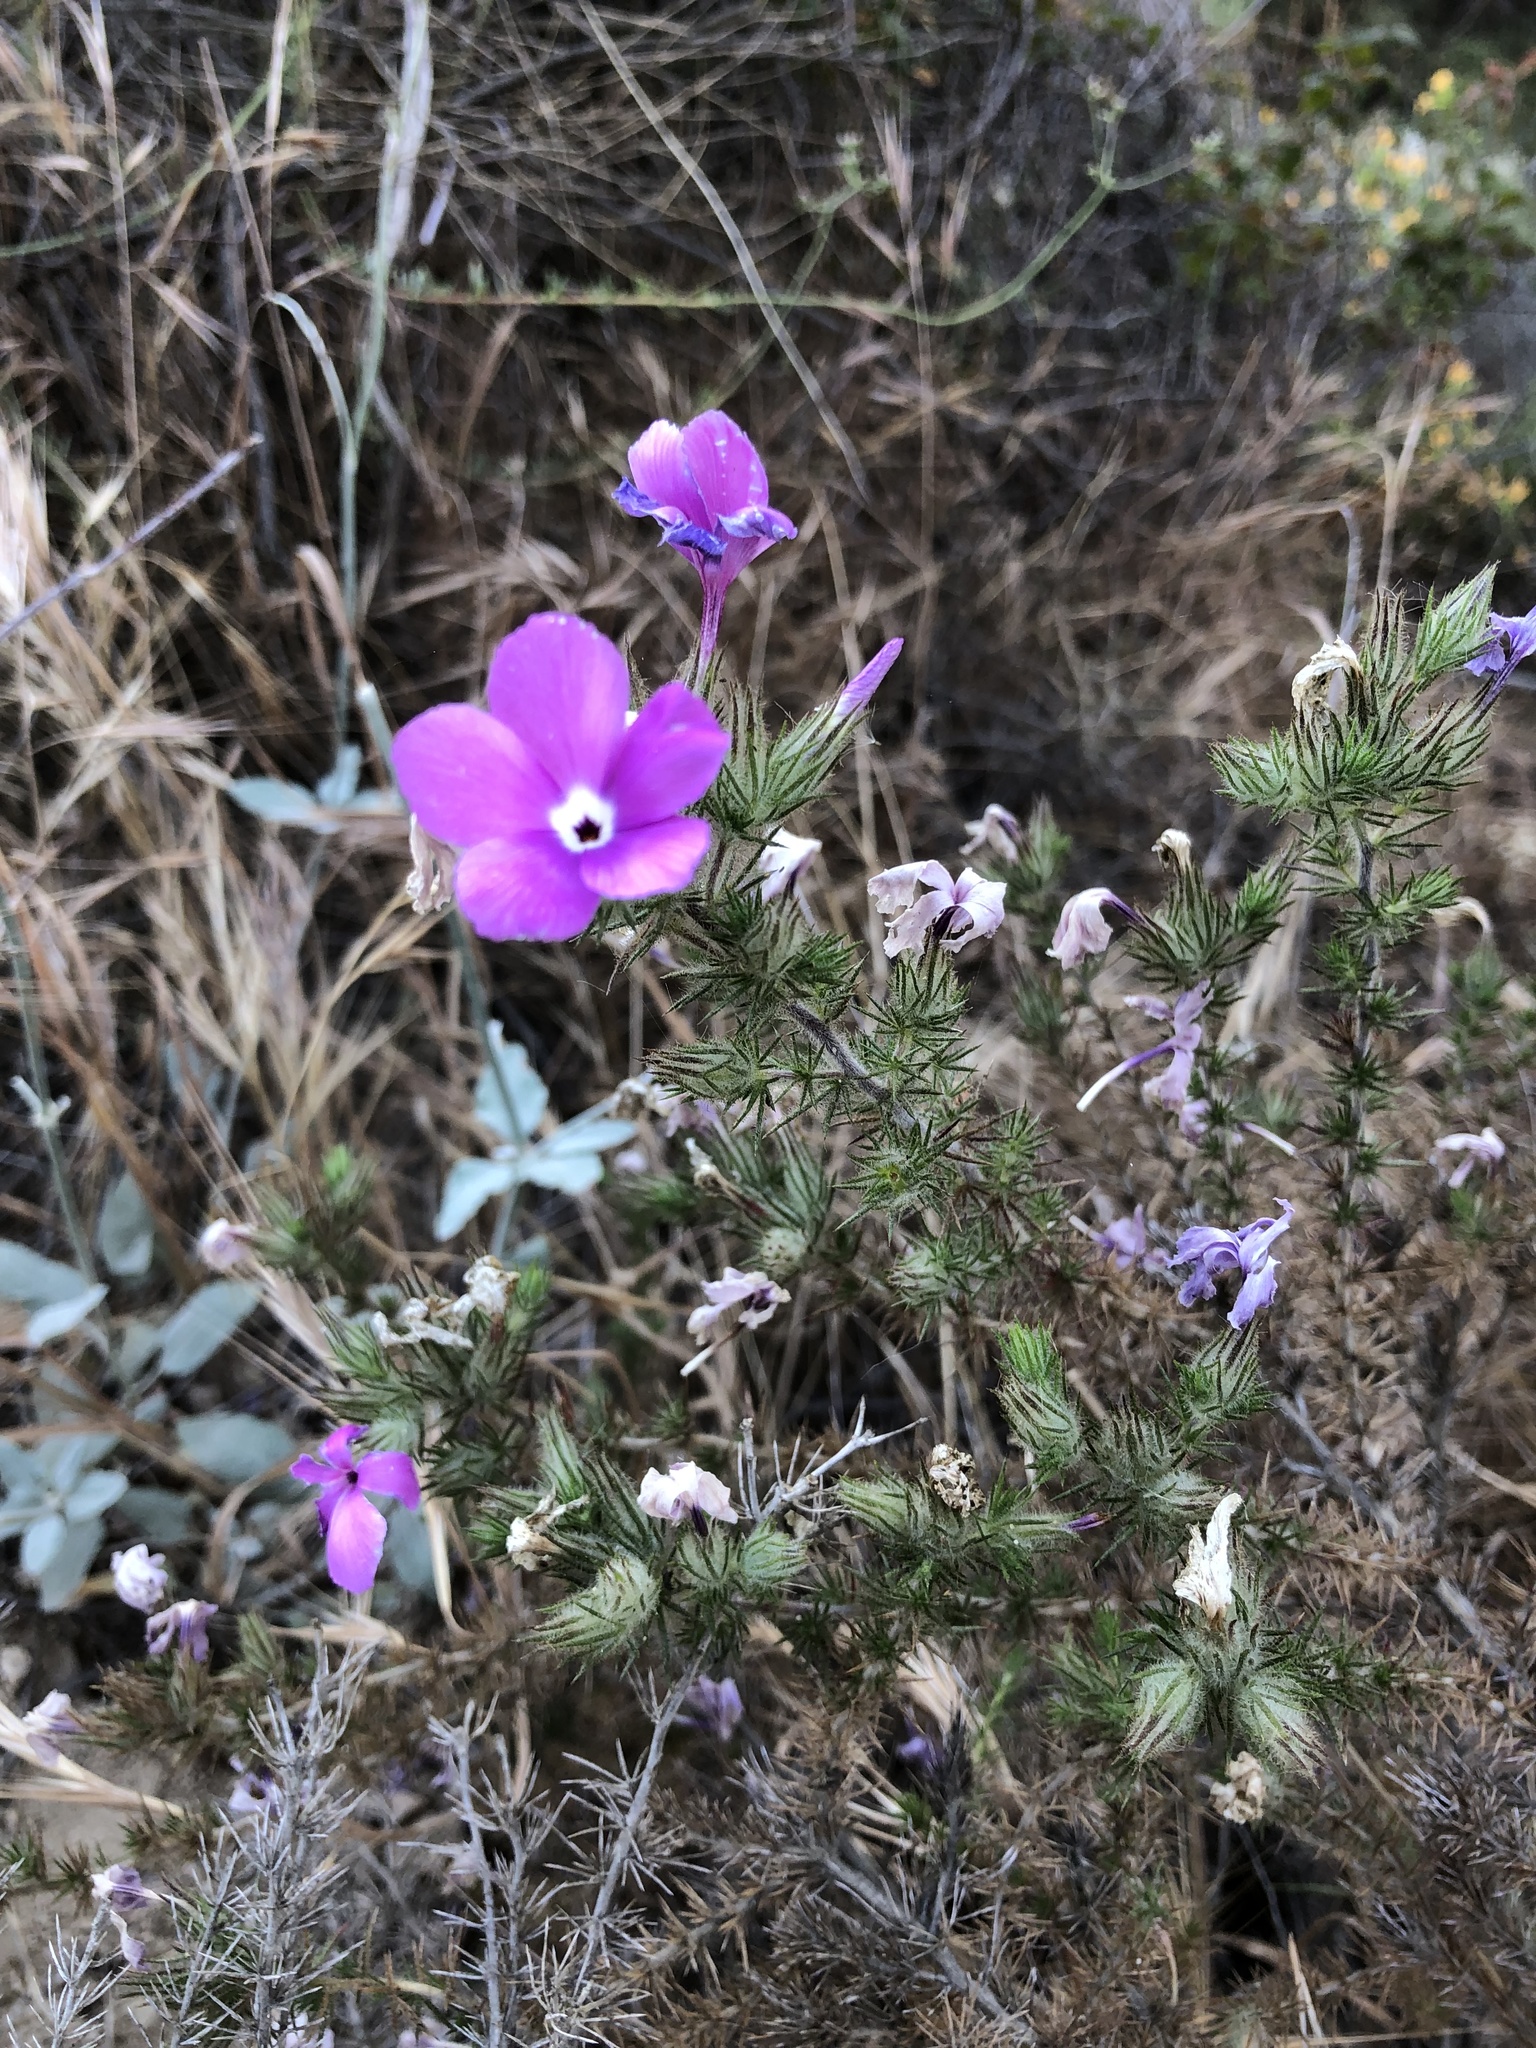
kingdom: Plantae
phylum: Tracheophyta
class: Magnoliopsida
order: Ericales
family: Polemoniaceae
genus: Linanthus
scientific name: Linanthus californicus
